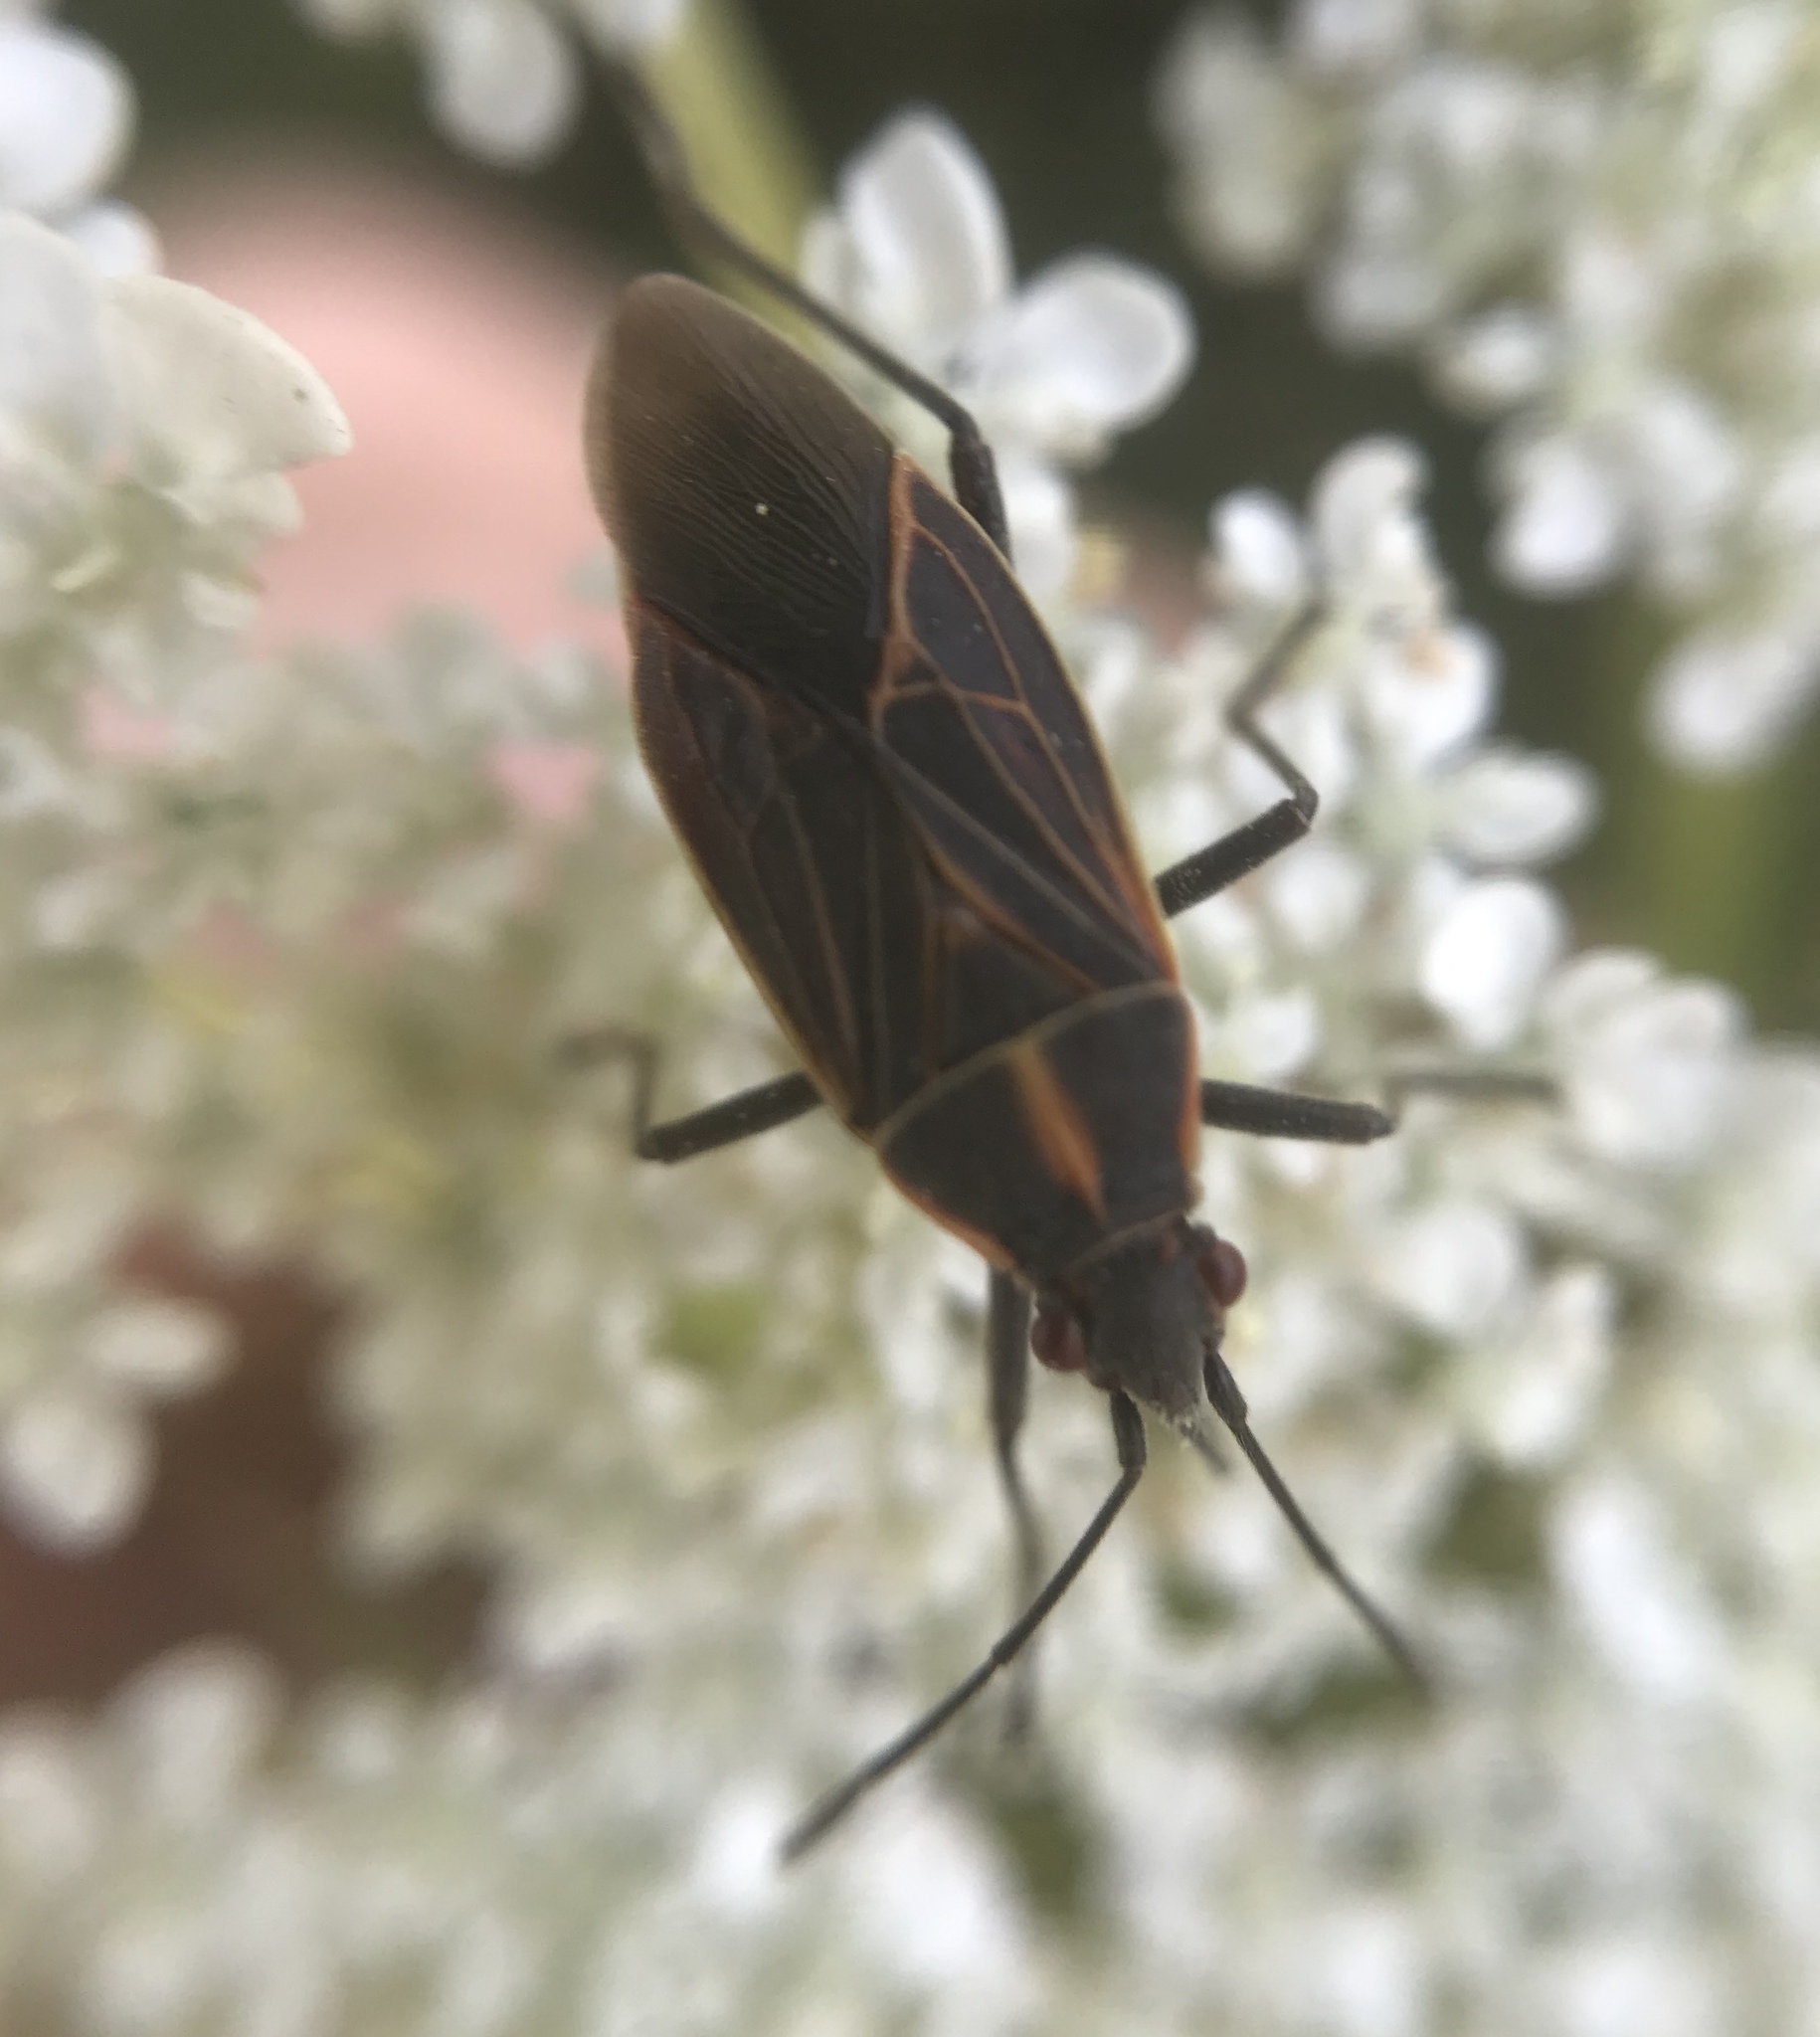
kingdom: Animalia
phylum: Arthropoda
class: Insecta
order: Hemiptera
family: Rhopalidae
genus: Boisea
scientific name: Boisea rubrolineata
